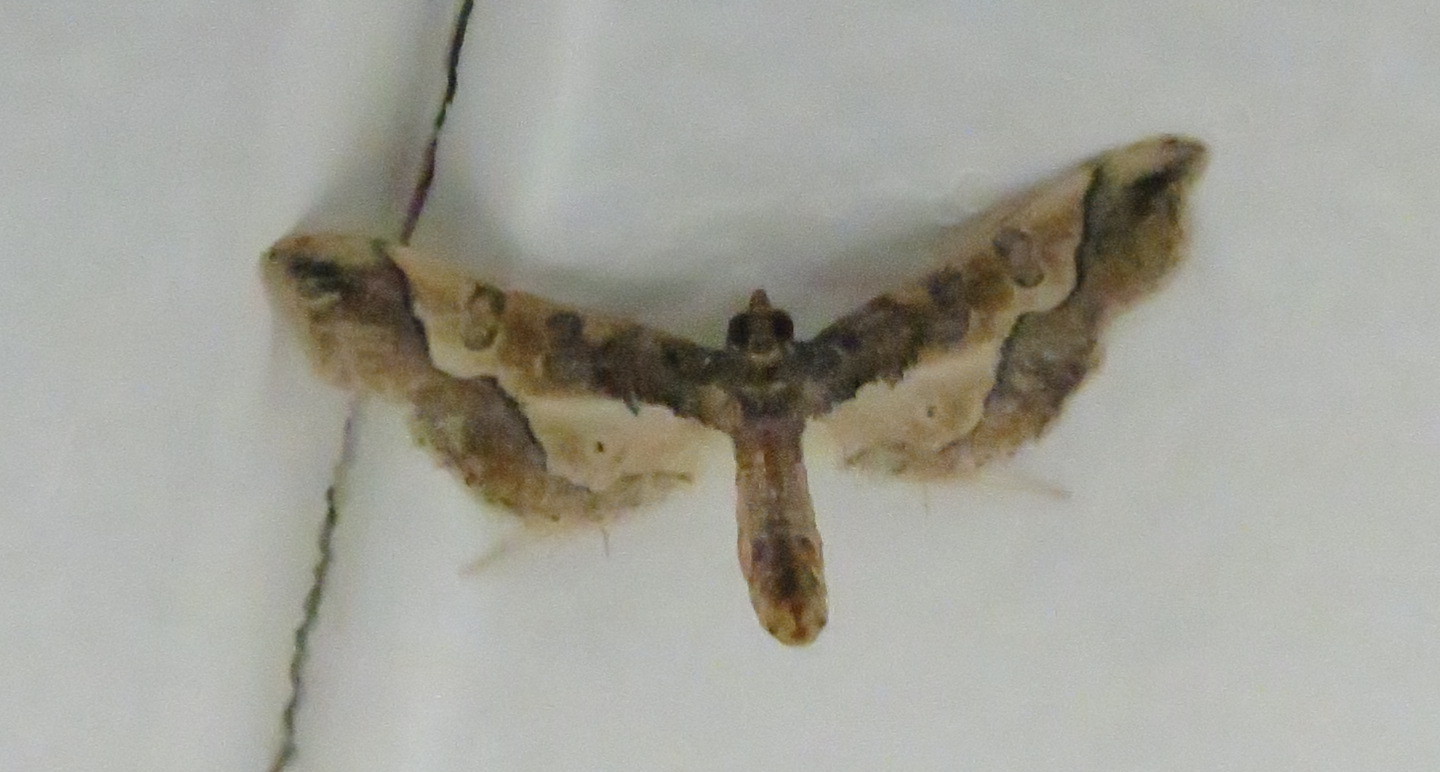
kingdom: Animalia
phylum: Arthropoda
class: Insecta
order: Lepidoptera
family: Crambidae
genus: Hydriris
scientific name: Hydriris ornatalis
